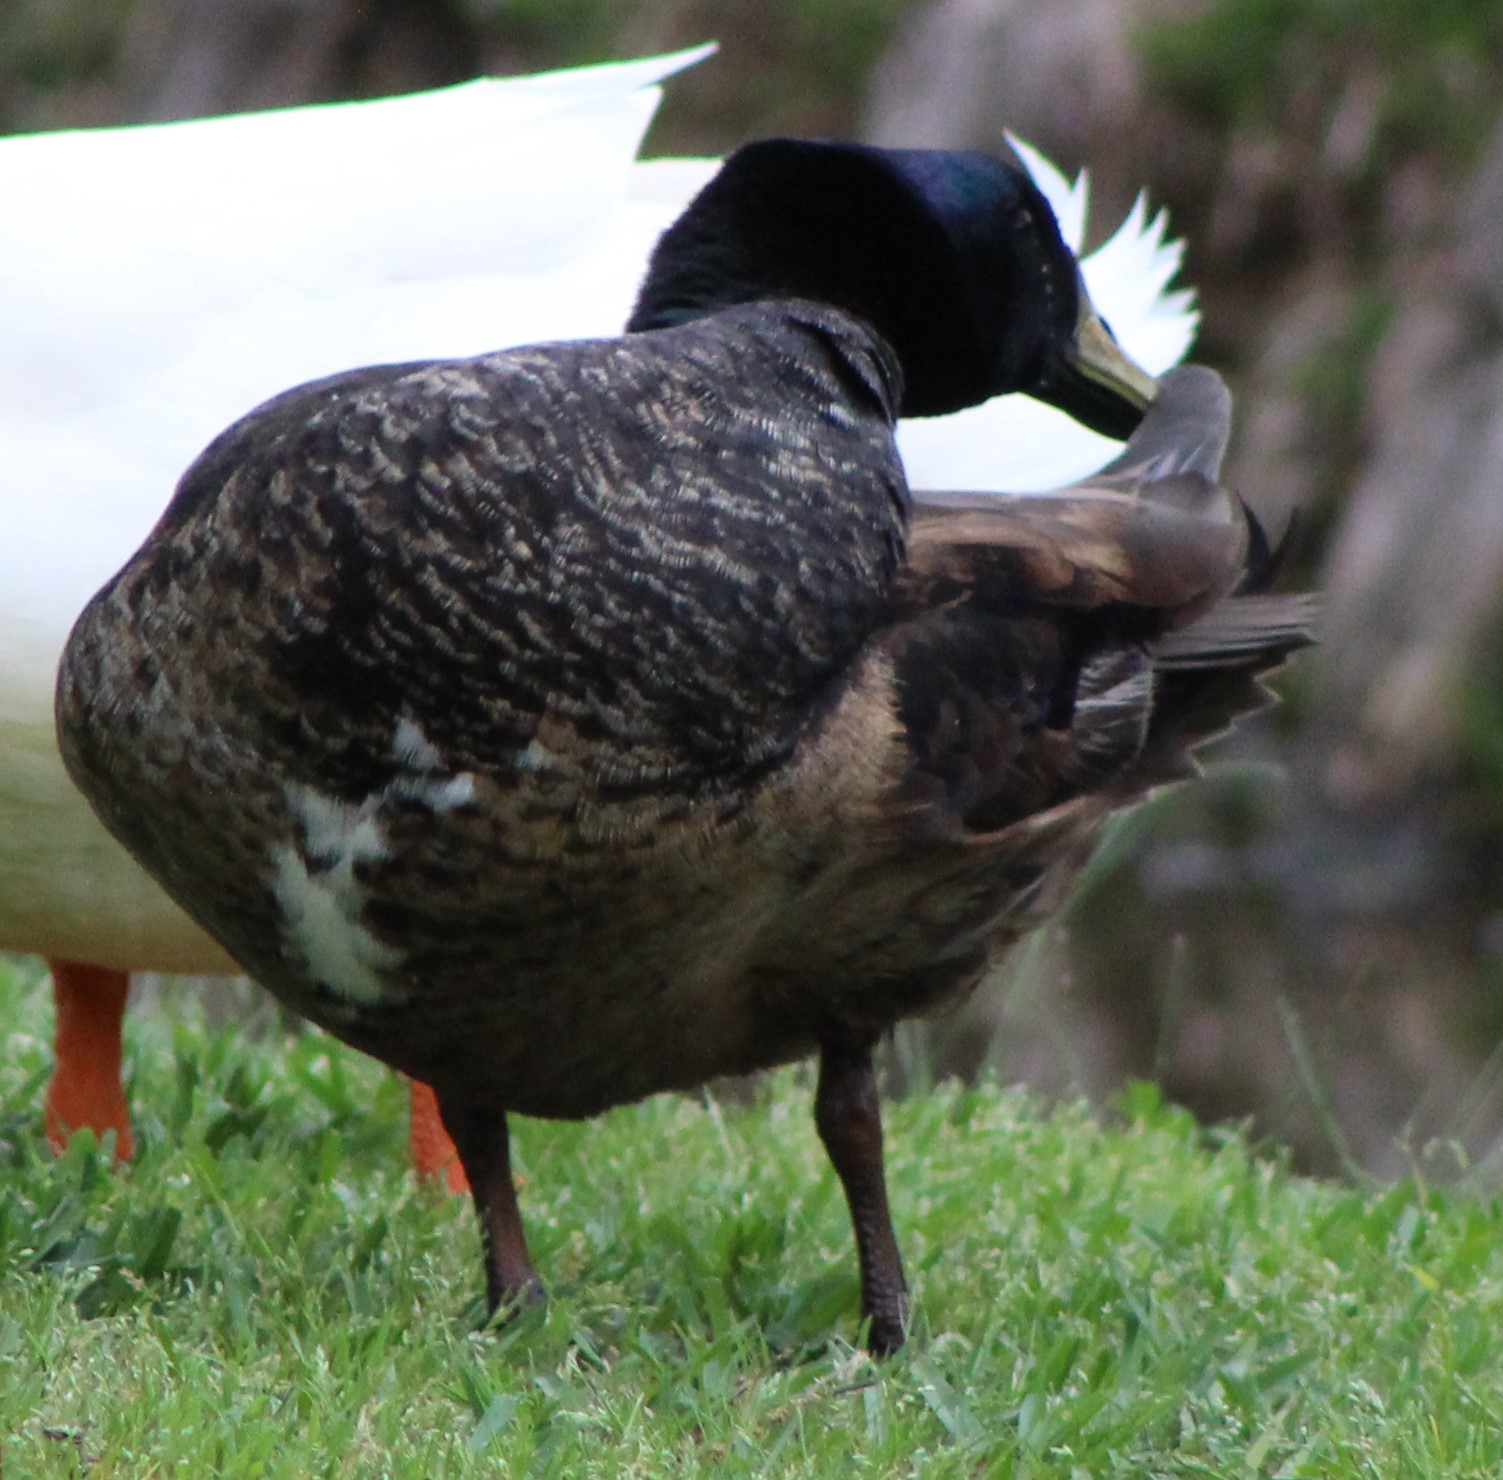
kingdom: Animalia
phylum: Chordata
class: Aves
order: Anseriformes
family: Anatidae
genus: Anas
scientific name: Anas platyrhynchos
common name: Mallard
